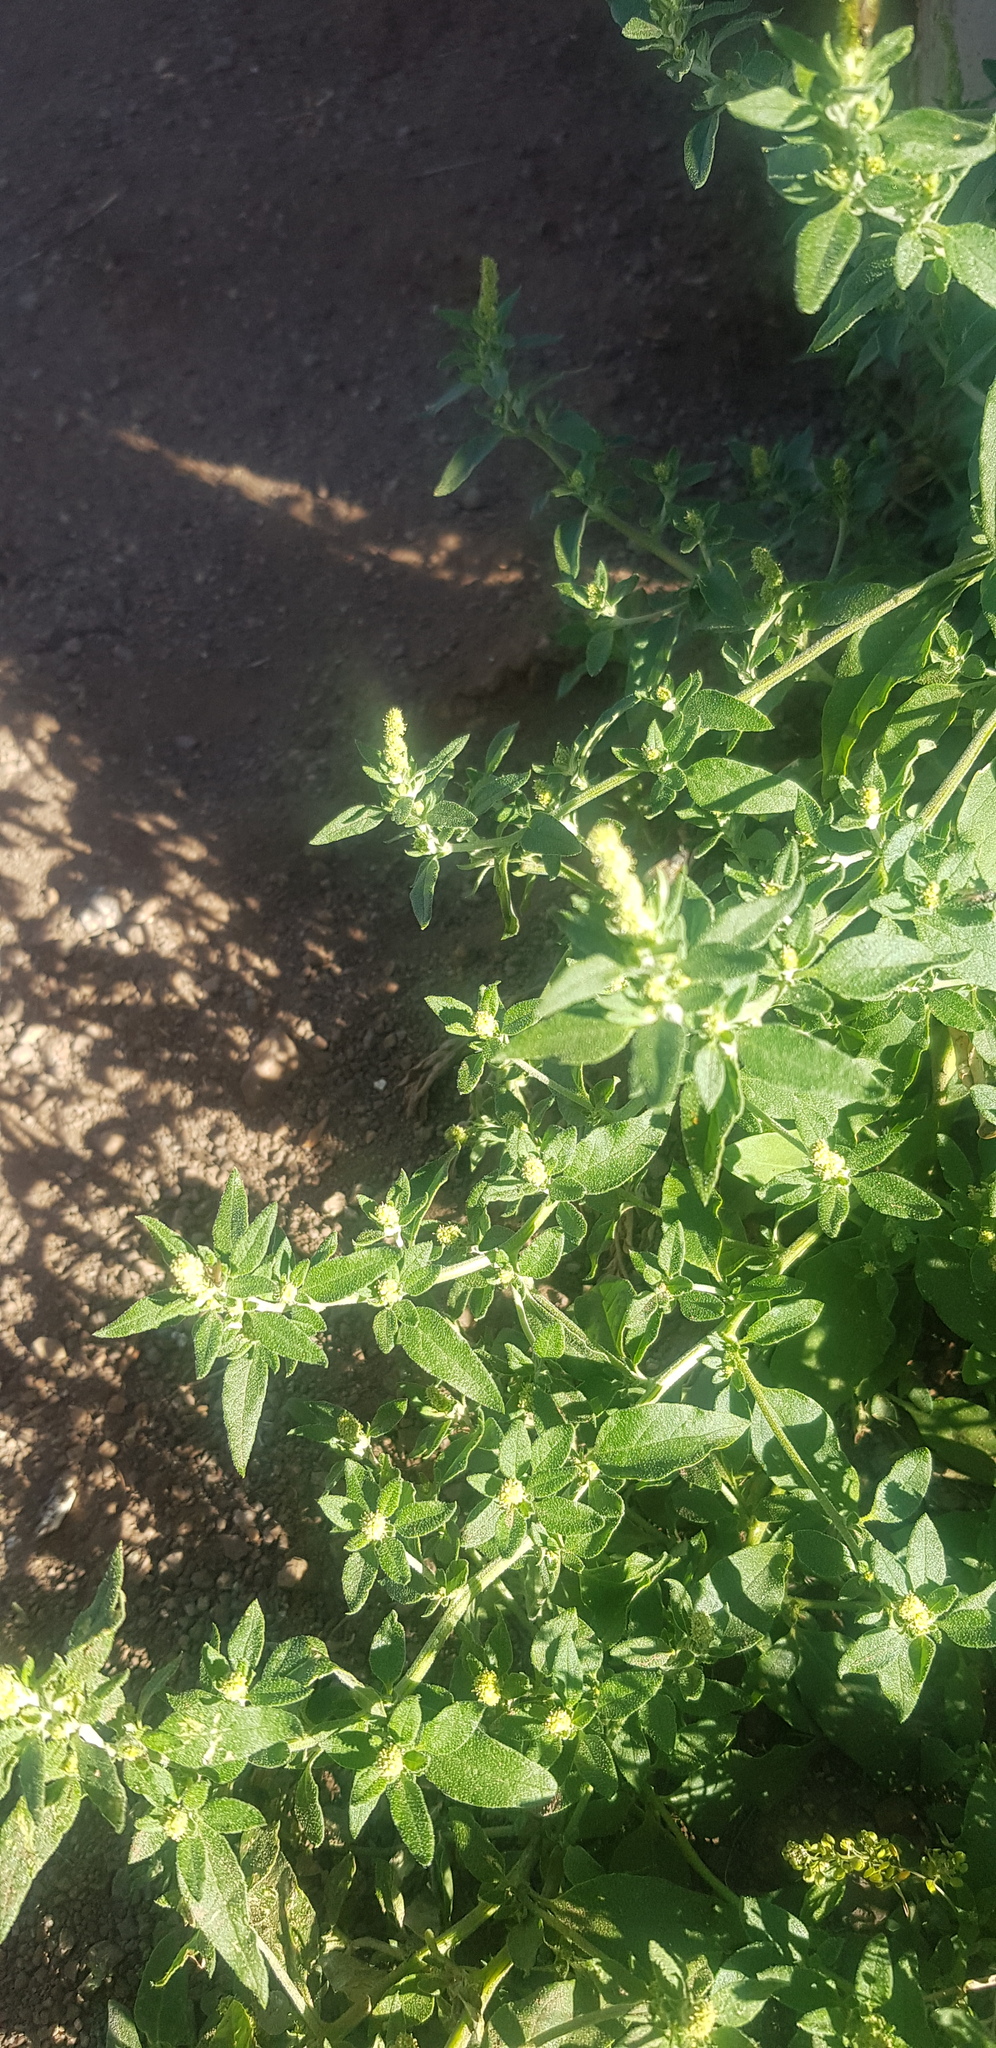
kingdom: Plantae
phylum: Tracheophyta
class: Magnoliopsida
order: Caryophyllales
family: Amaranthaceae
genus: Axyris
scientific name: Axyris amaranthoides
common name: Russian pigweed
